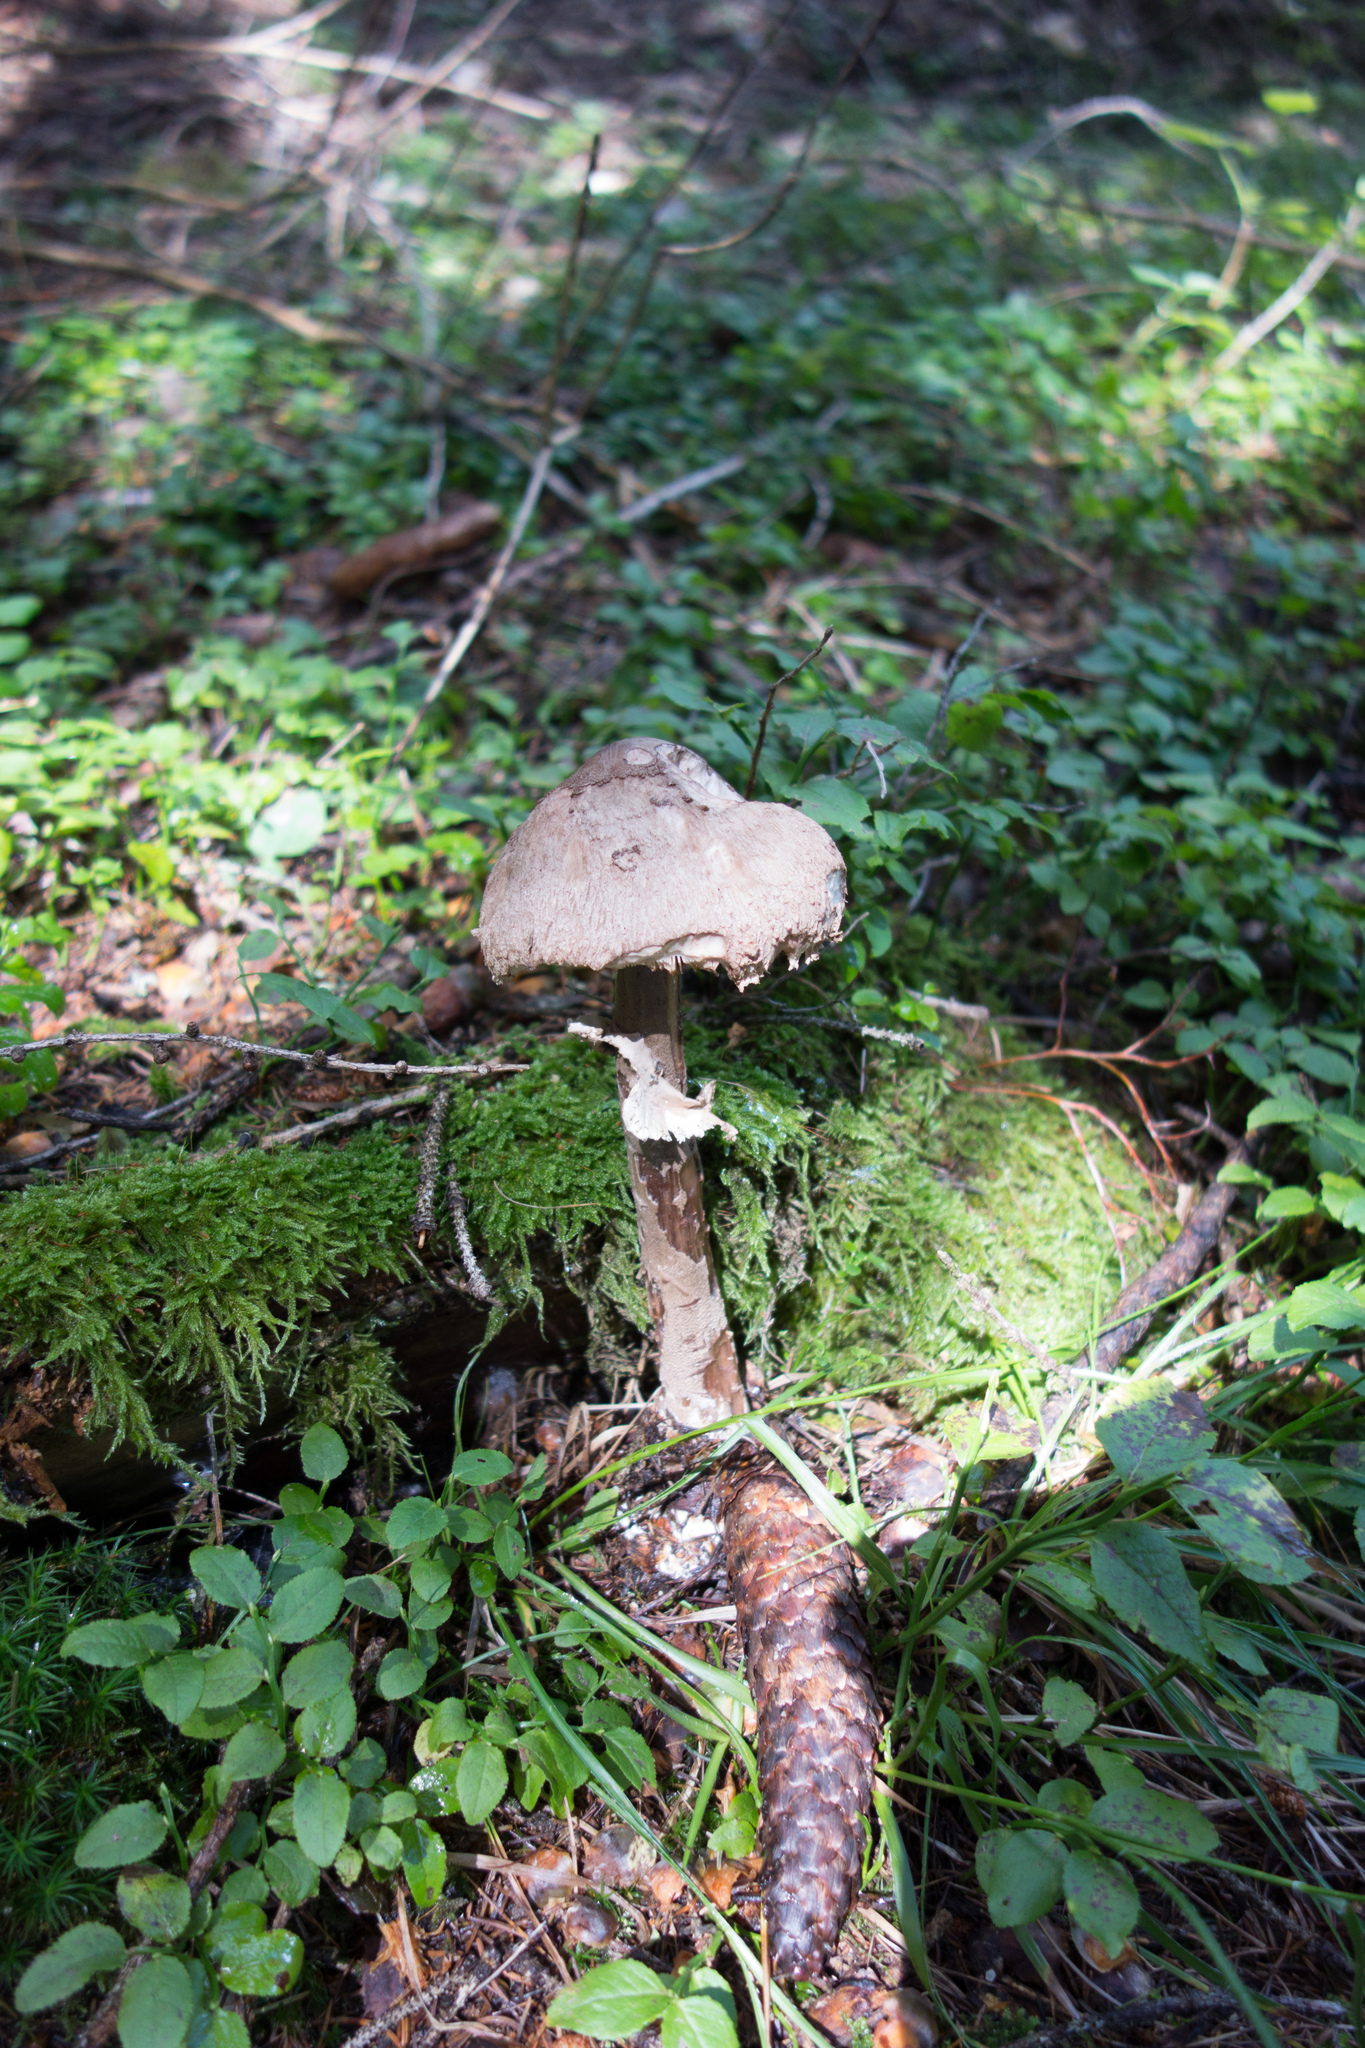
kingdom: Fungi
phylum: Basidiomycota
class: Agaricomycetes
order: Agaricales
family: Agaricaceae
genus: Macrolepiota
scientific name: Macrolepiota procera
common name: Parasol
